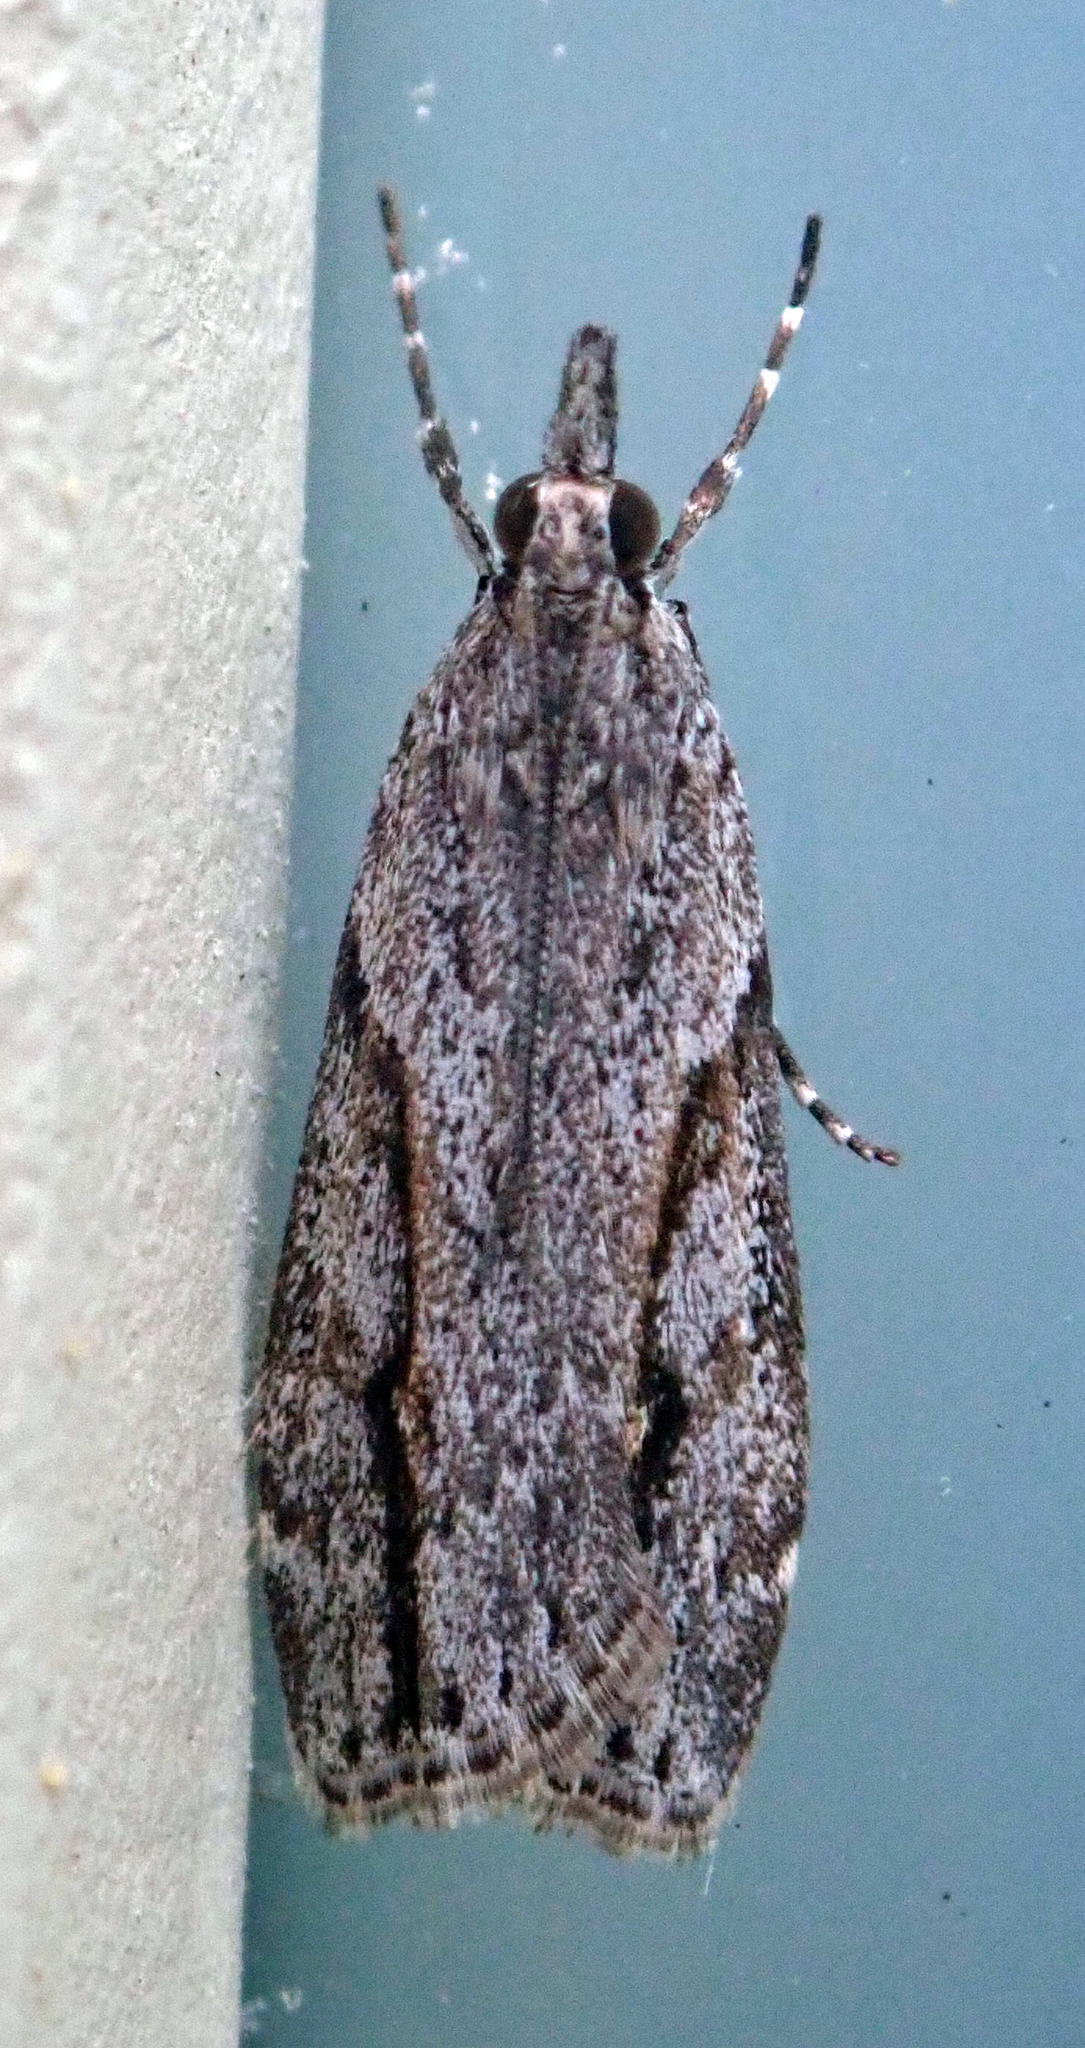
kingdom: Animalia
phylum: Arthropoda
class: Insecta
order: Lepidoptera
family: Crambidae
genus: Eudonia
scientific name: Eudonia bisinualis
